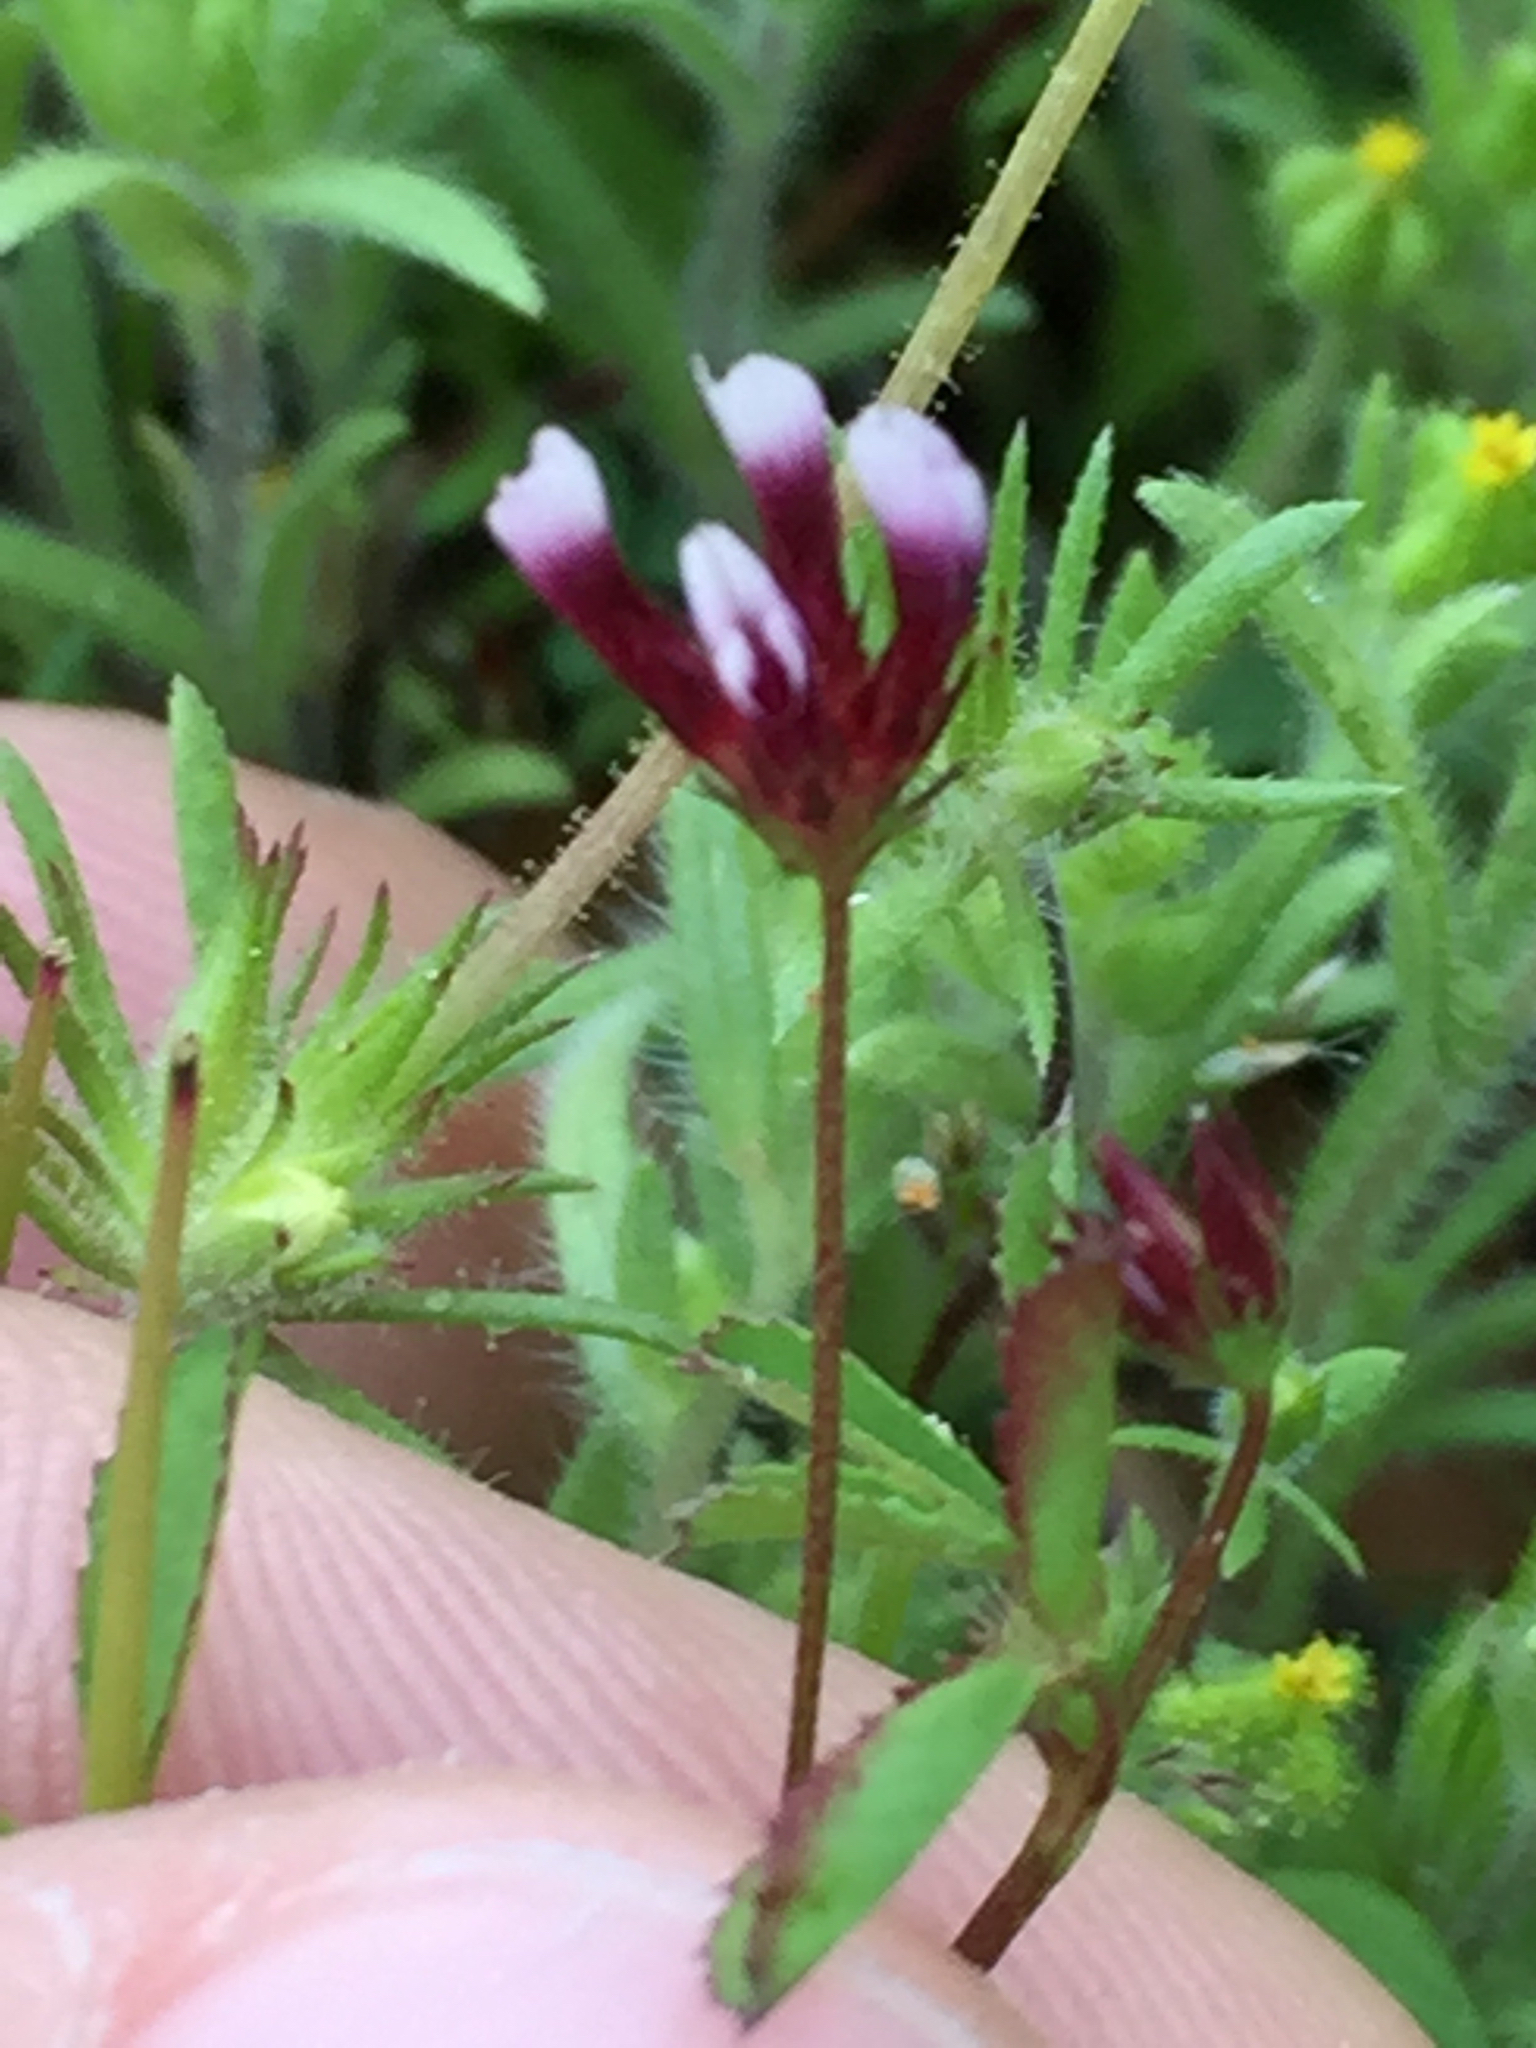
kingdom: Plantae
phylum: Tracheophyta
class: Magnoliopsida
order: Fabales
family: Fabaceae
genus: Trifolium
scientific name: Trifolium variegatum
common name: Whitetip clover
